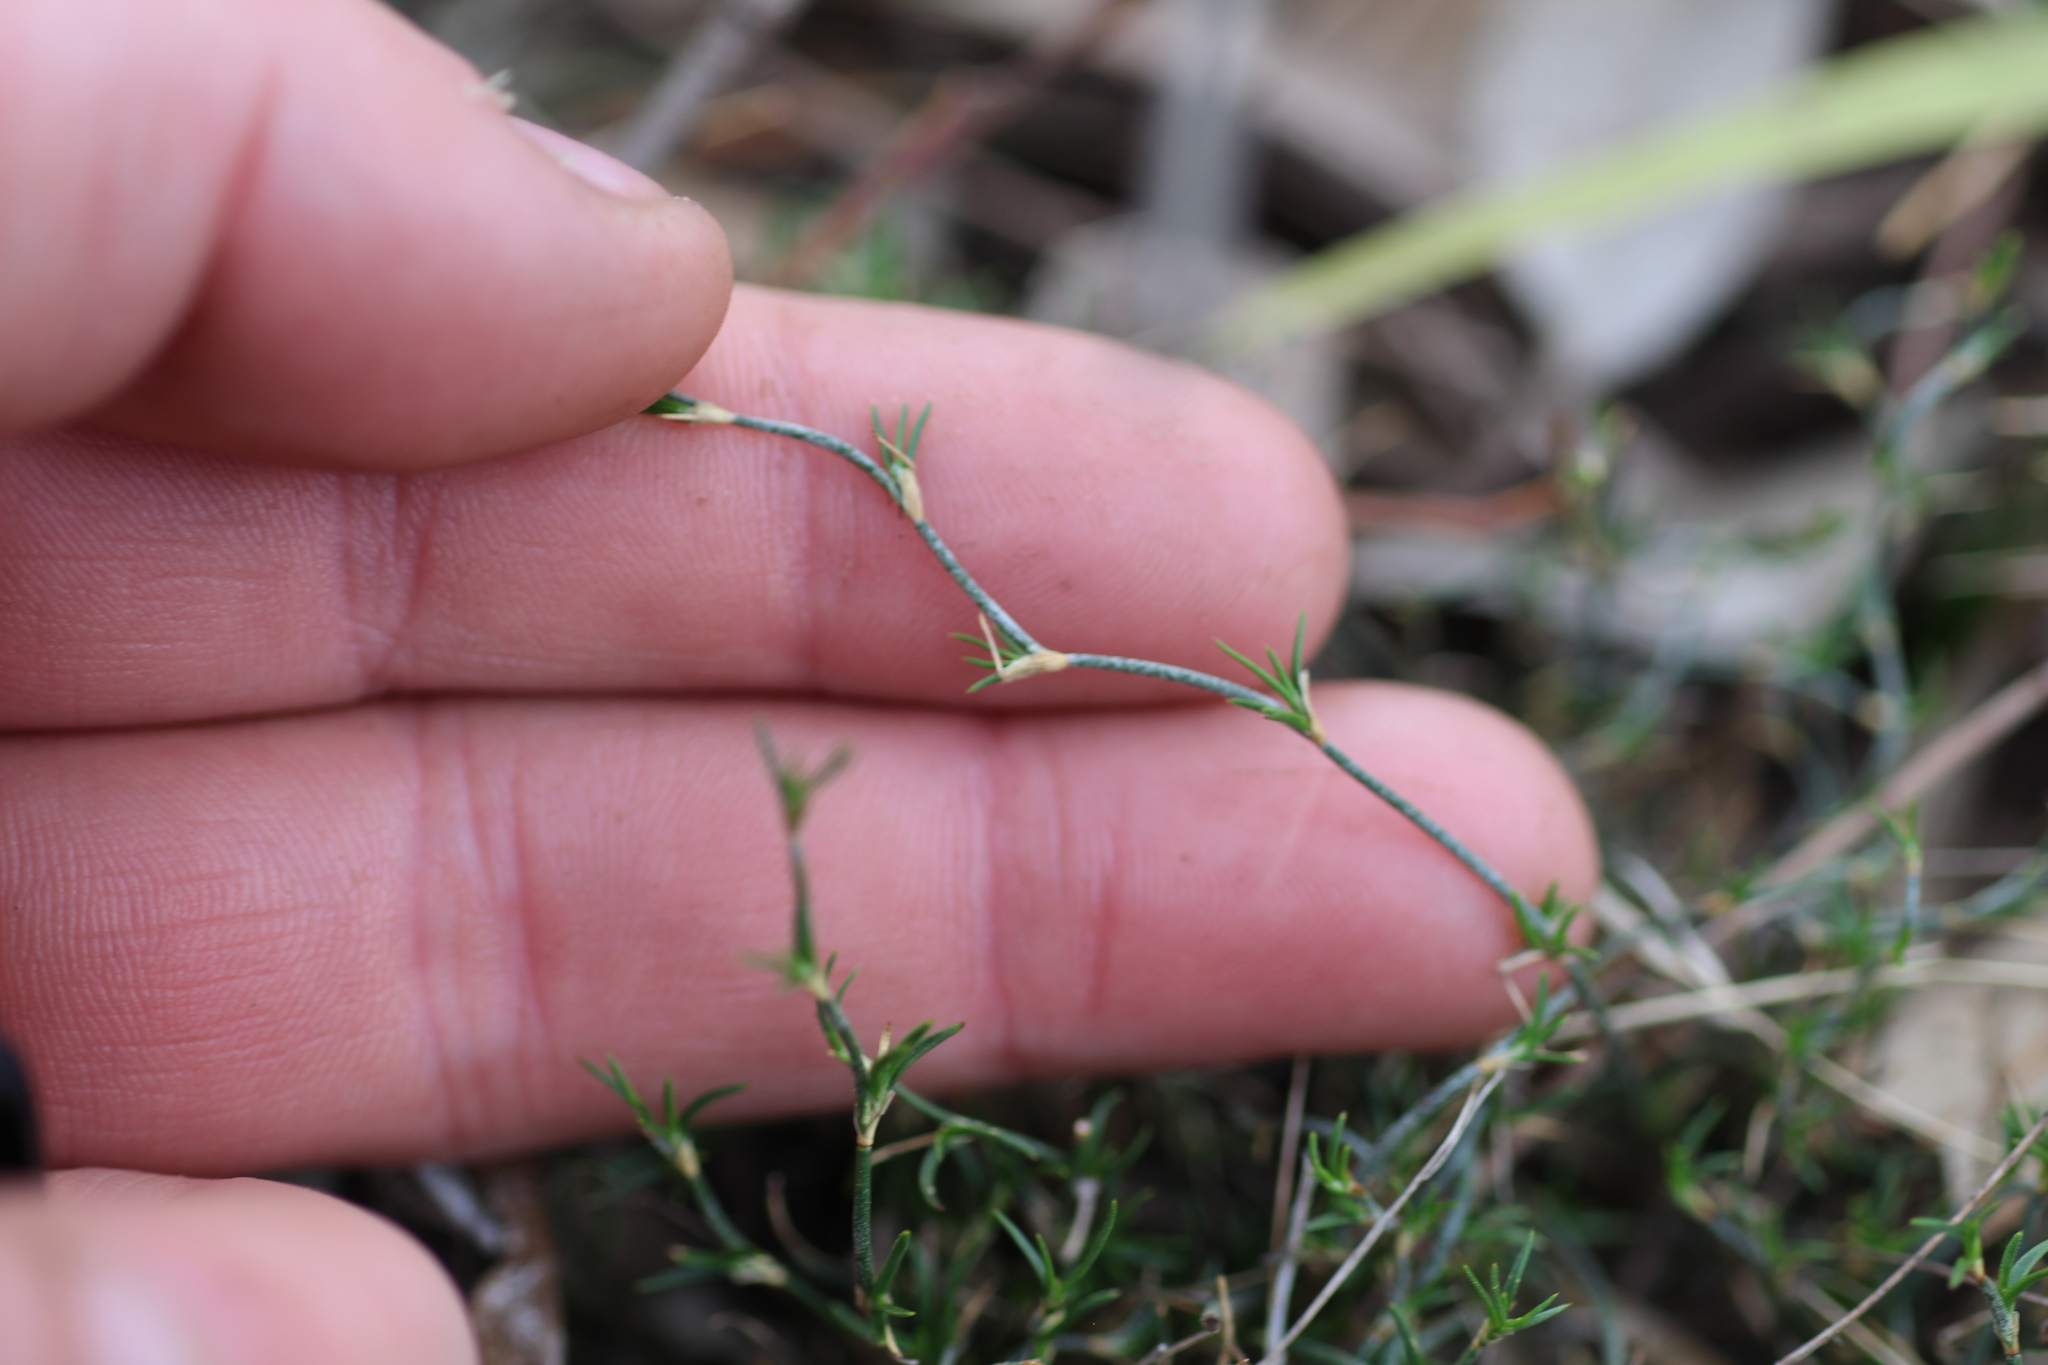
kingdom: Plantae
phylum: Tracheophyta
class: Liliopsida
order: Poales
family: Restionaceae
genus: Desmocladus
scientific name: Desmocladus asper
